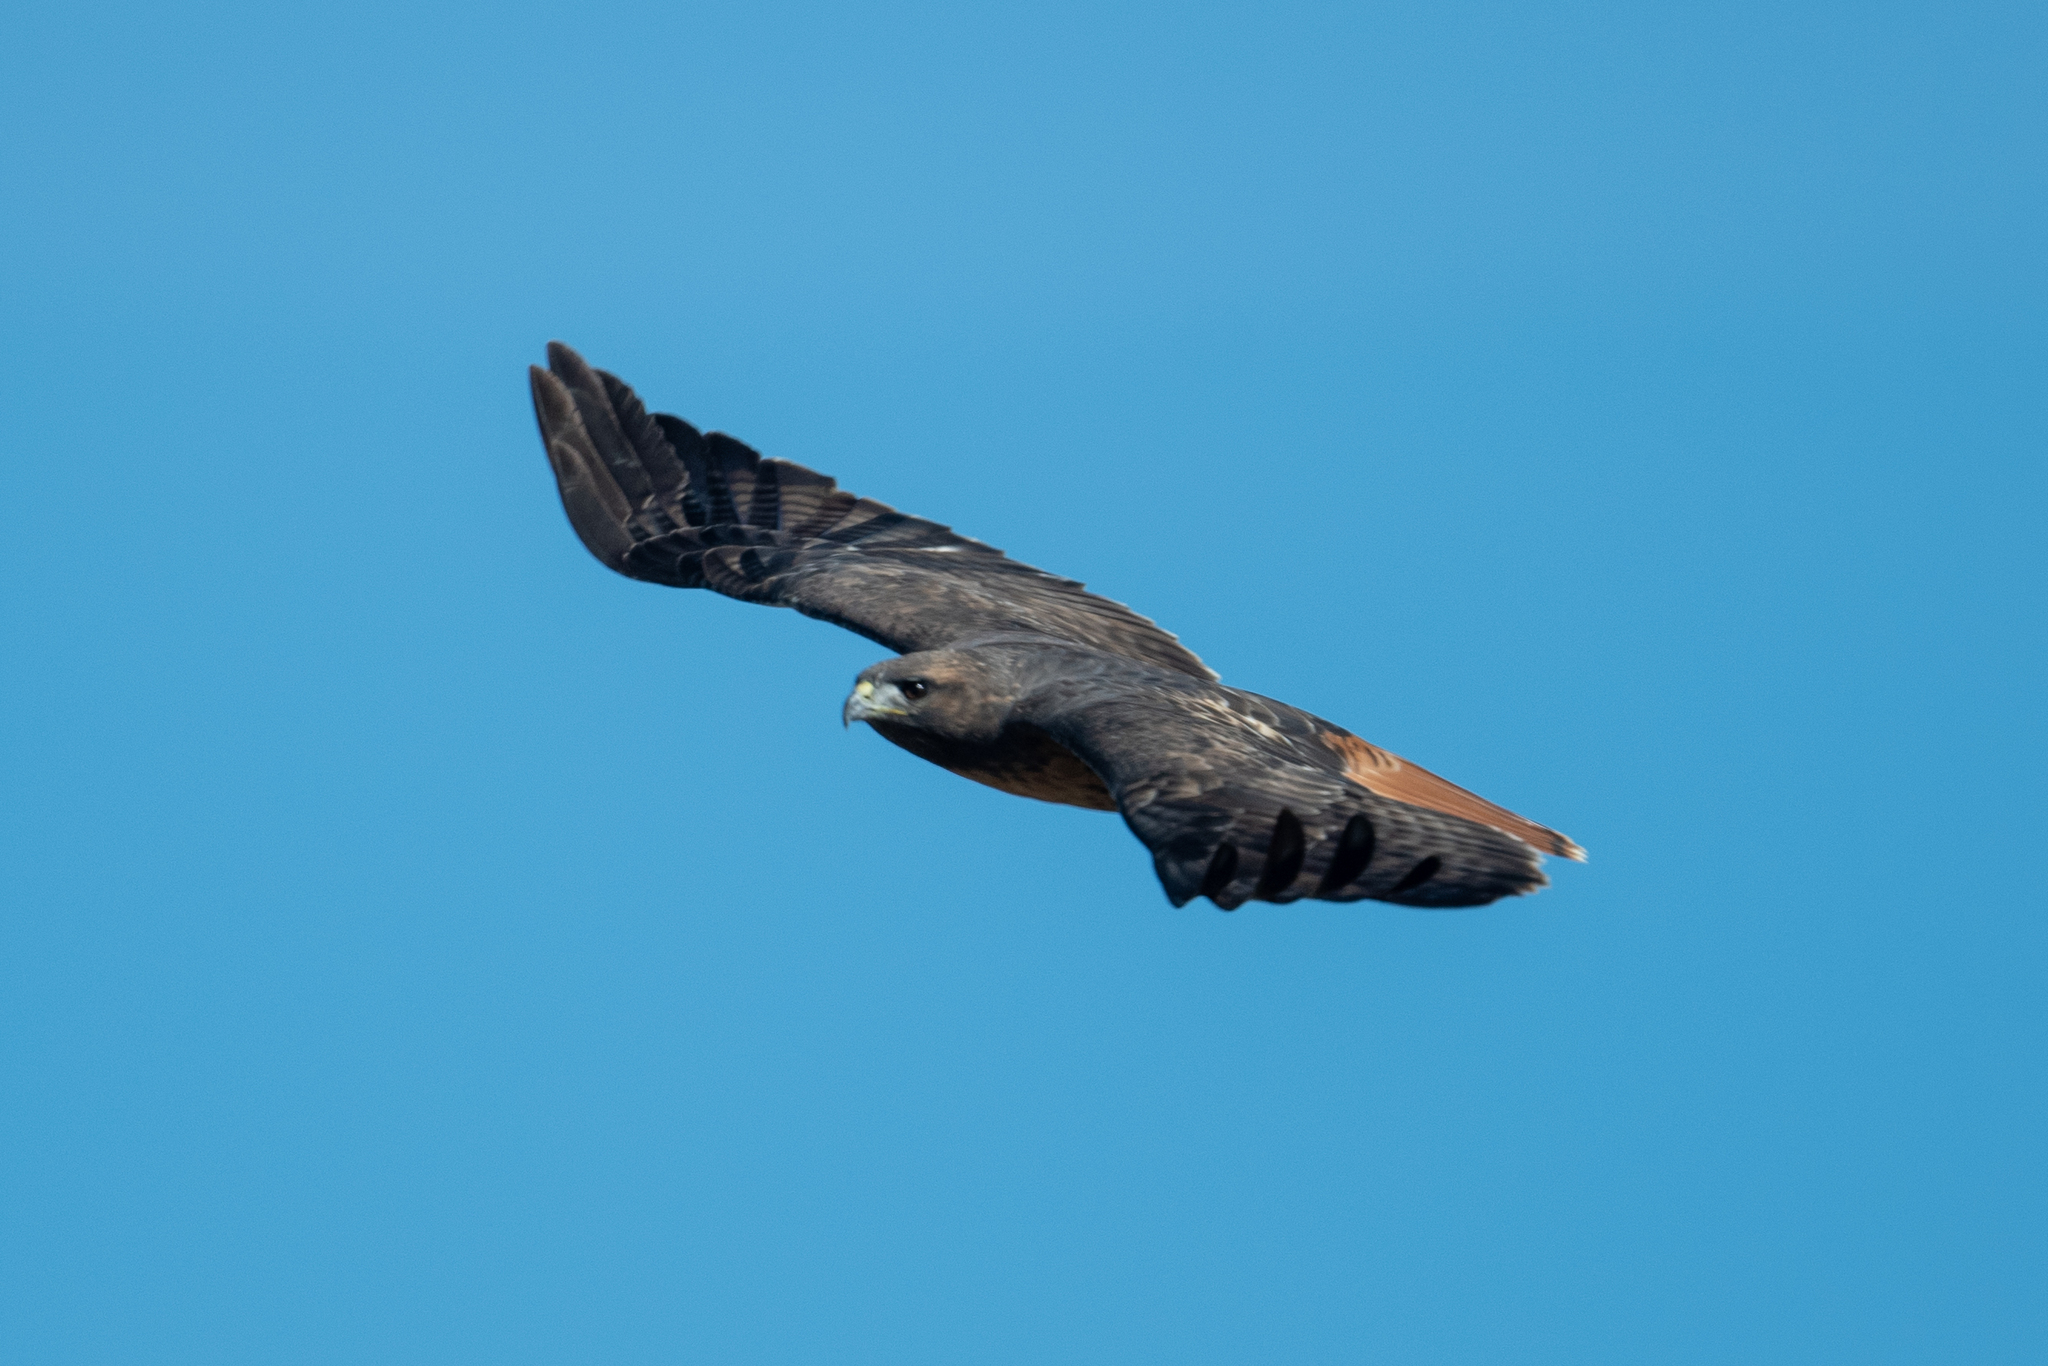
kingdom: Animalia
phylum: Chordata
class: Aves
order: Accipitriformes
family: Accipitridae
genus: Buteo
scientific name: Buteo jamaicensis
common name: Red-tailed hawk
